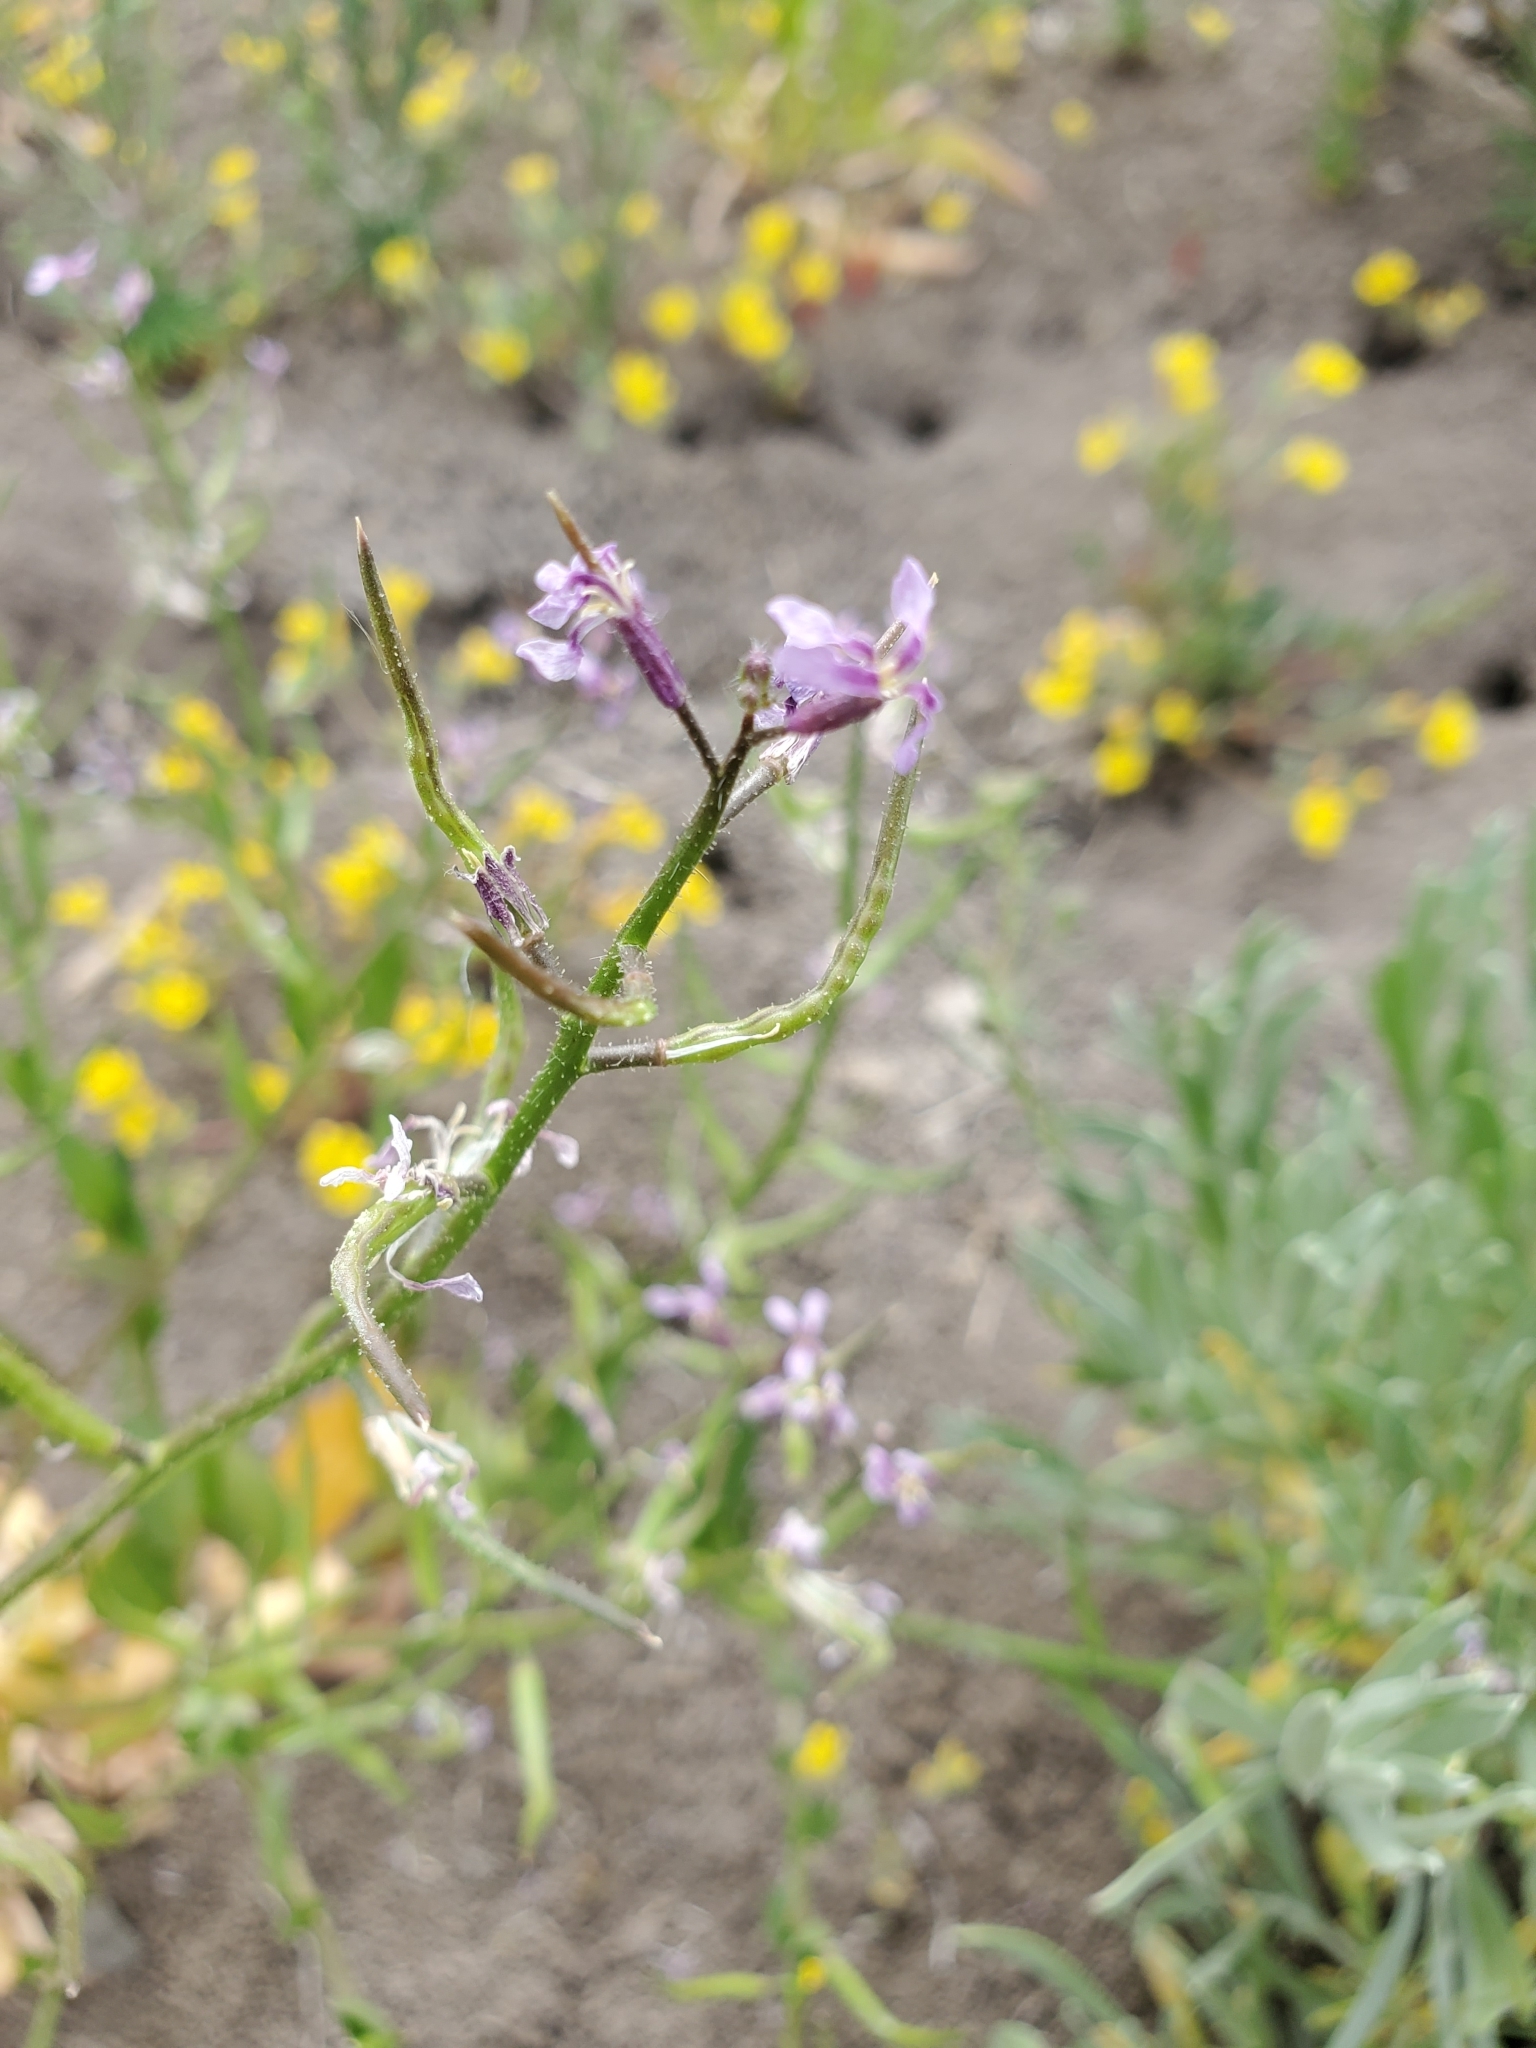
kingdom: Plantae
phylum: Tracheophyta
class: Magnoliopsida
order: Brassicales
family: Brassicaceae
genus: Chorispora
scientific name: Chorispora tenella
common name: Crossflower
